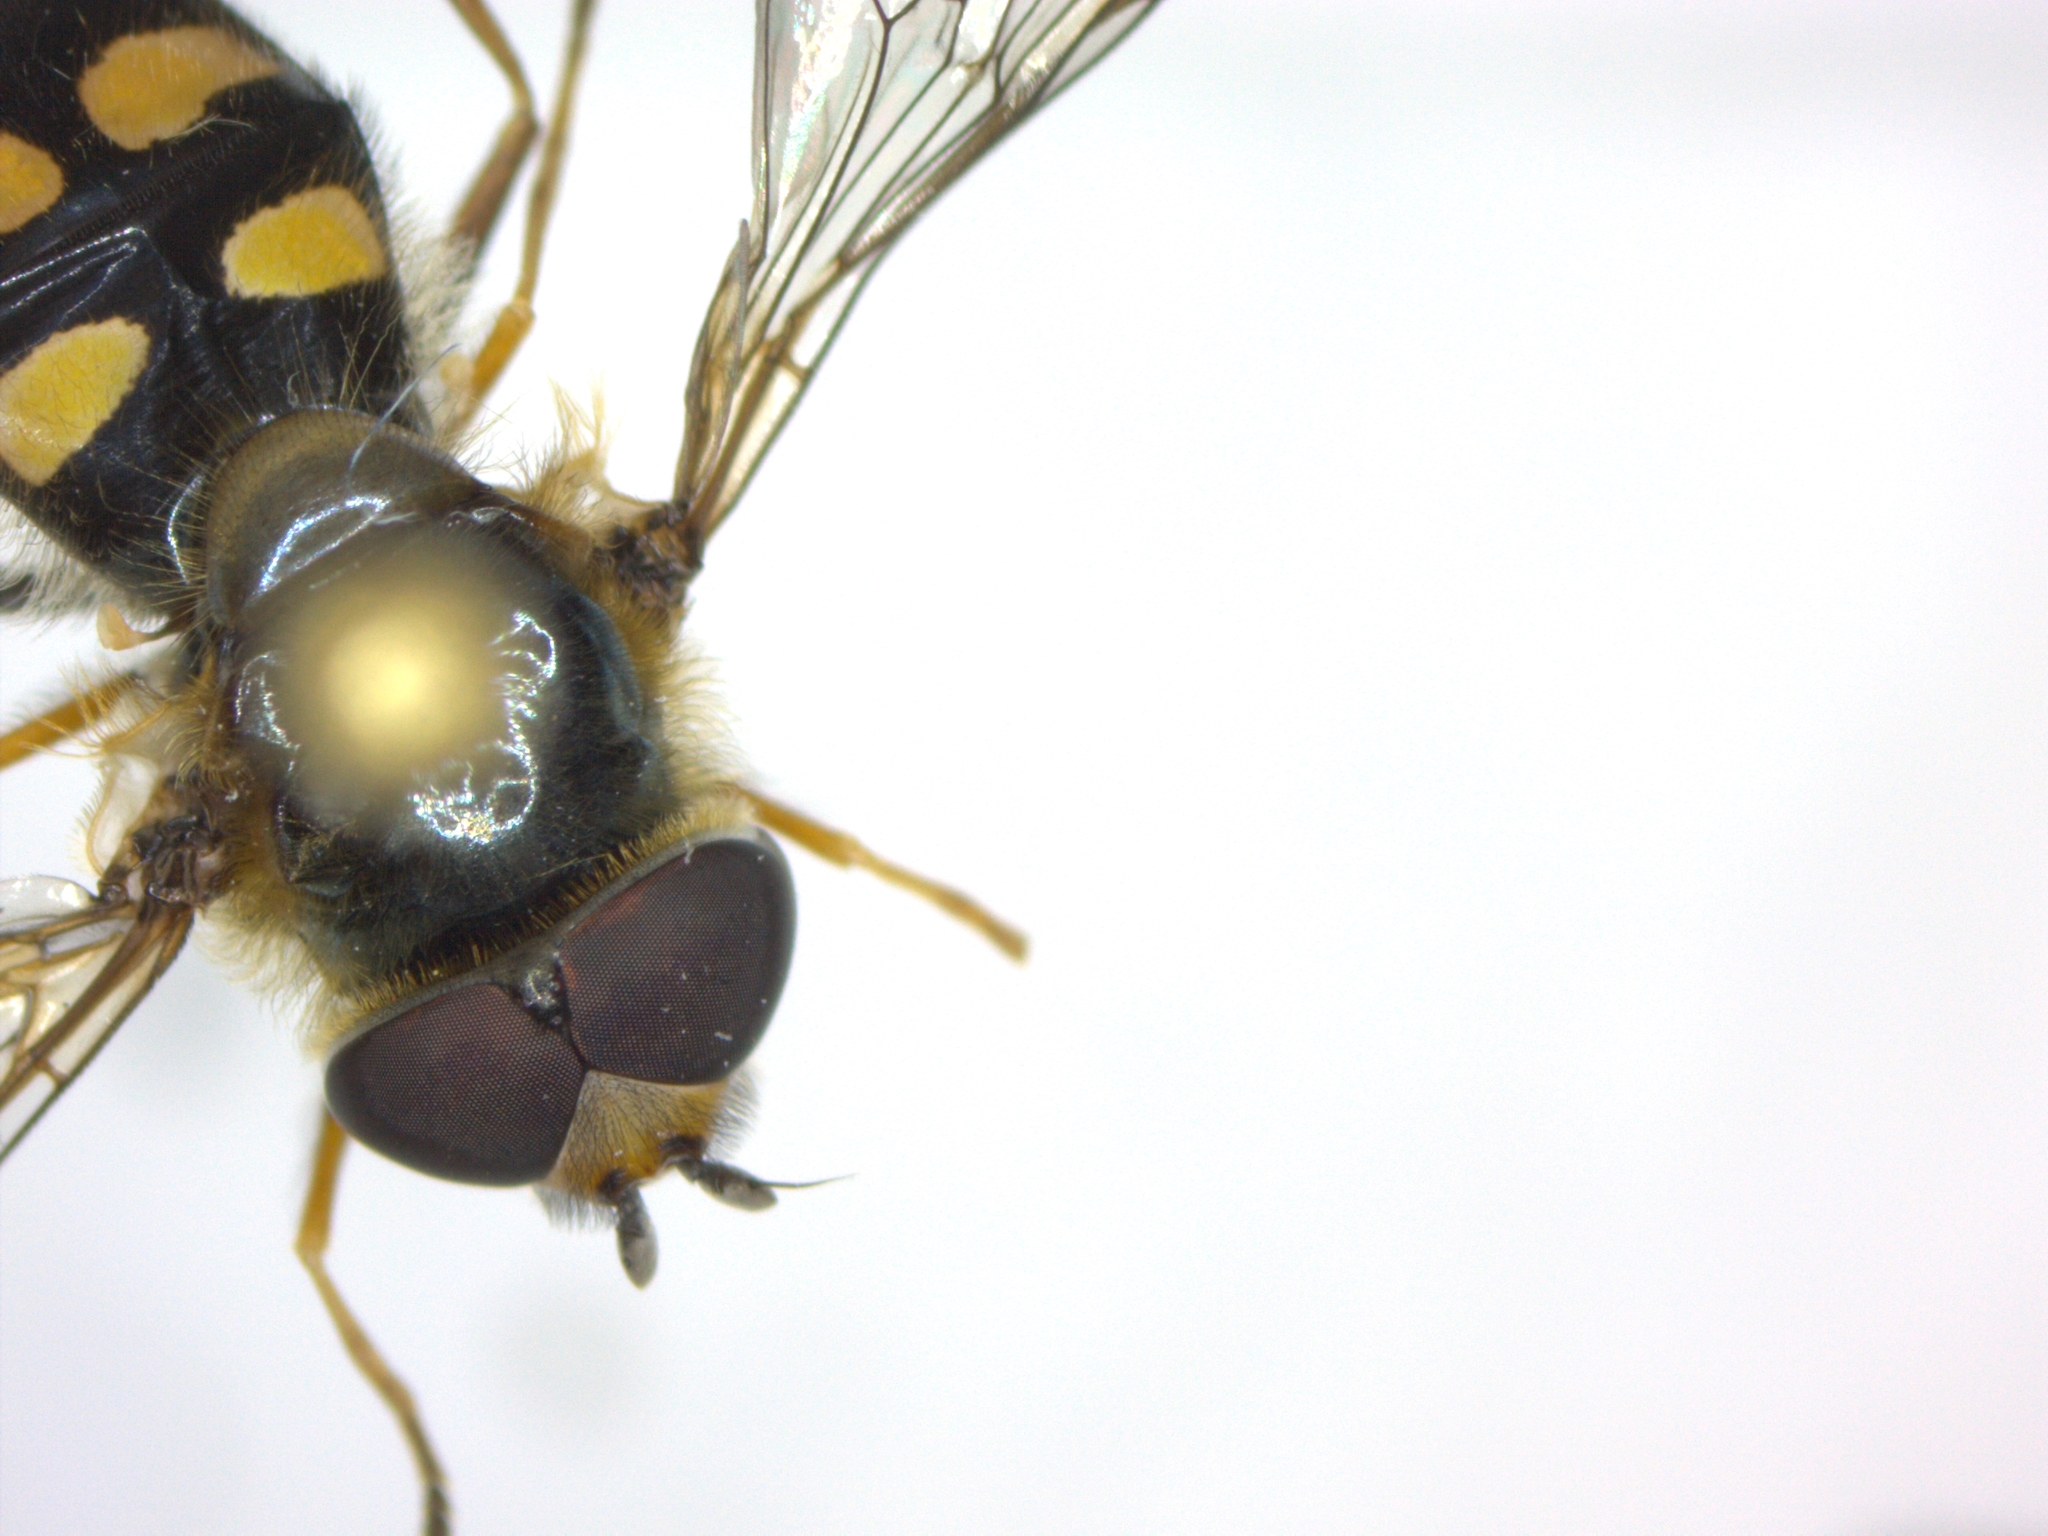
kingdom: Animalia
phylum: Arthropoda
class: Insecta
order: Diptera
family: Syrphidae
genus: Eupeodes
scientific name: Eupeodes
